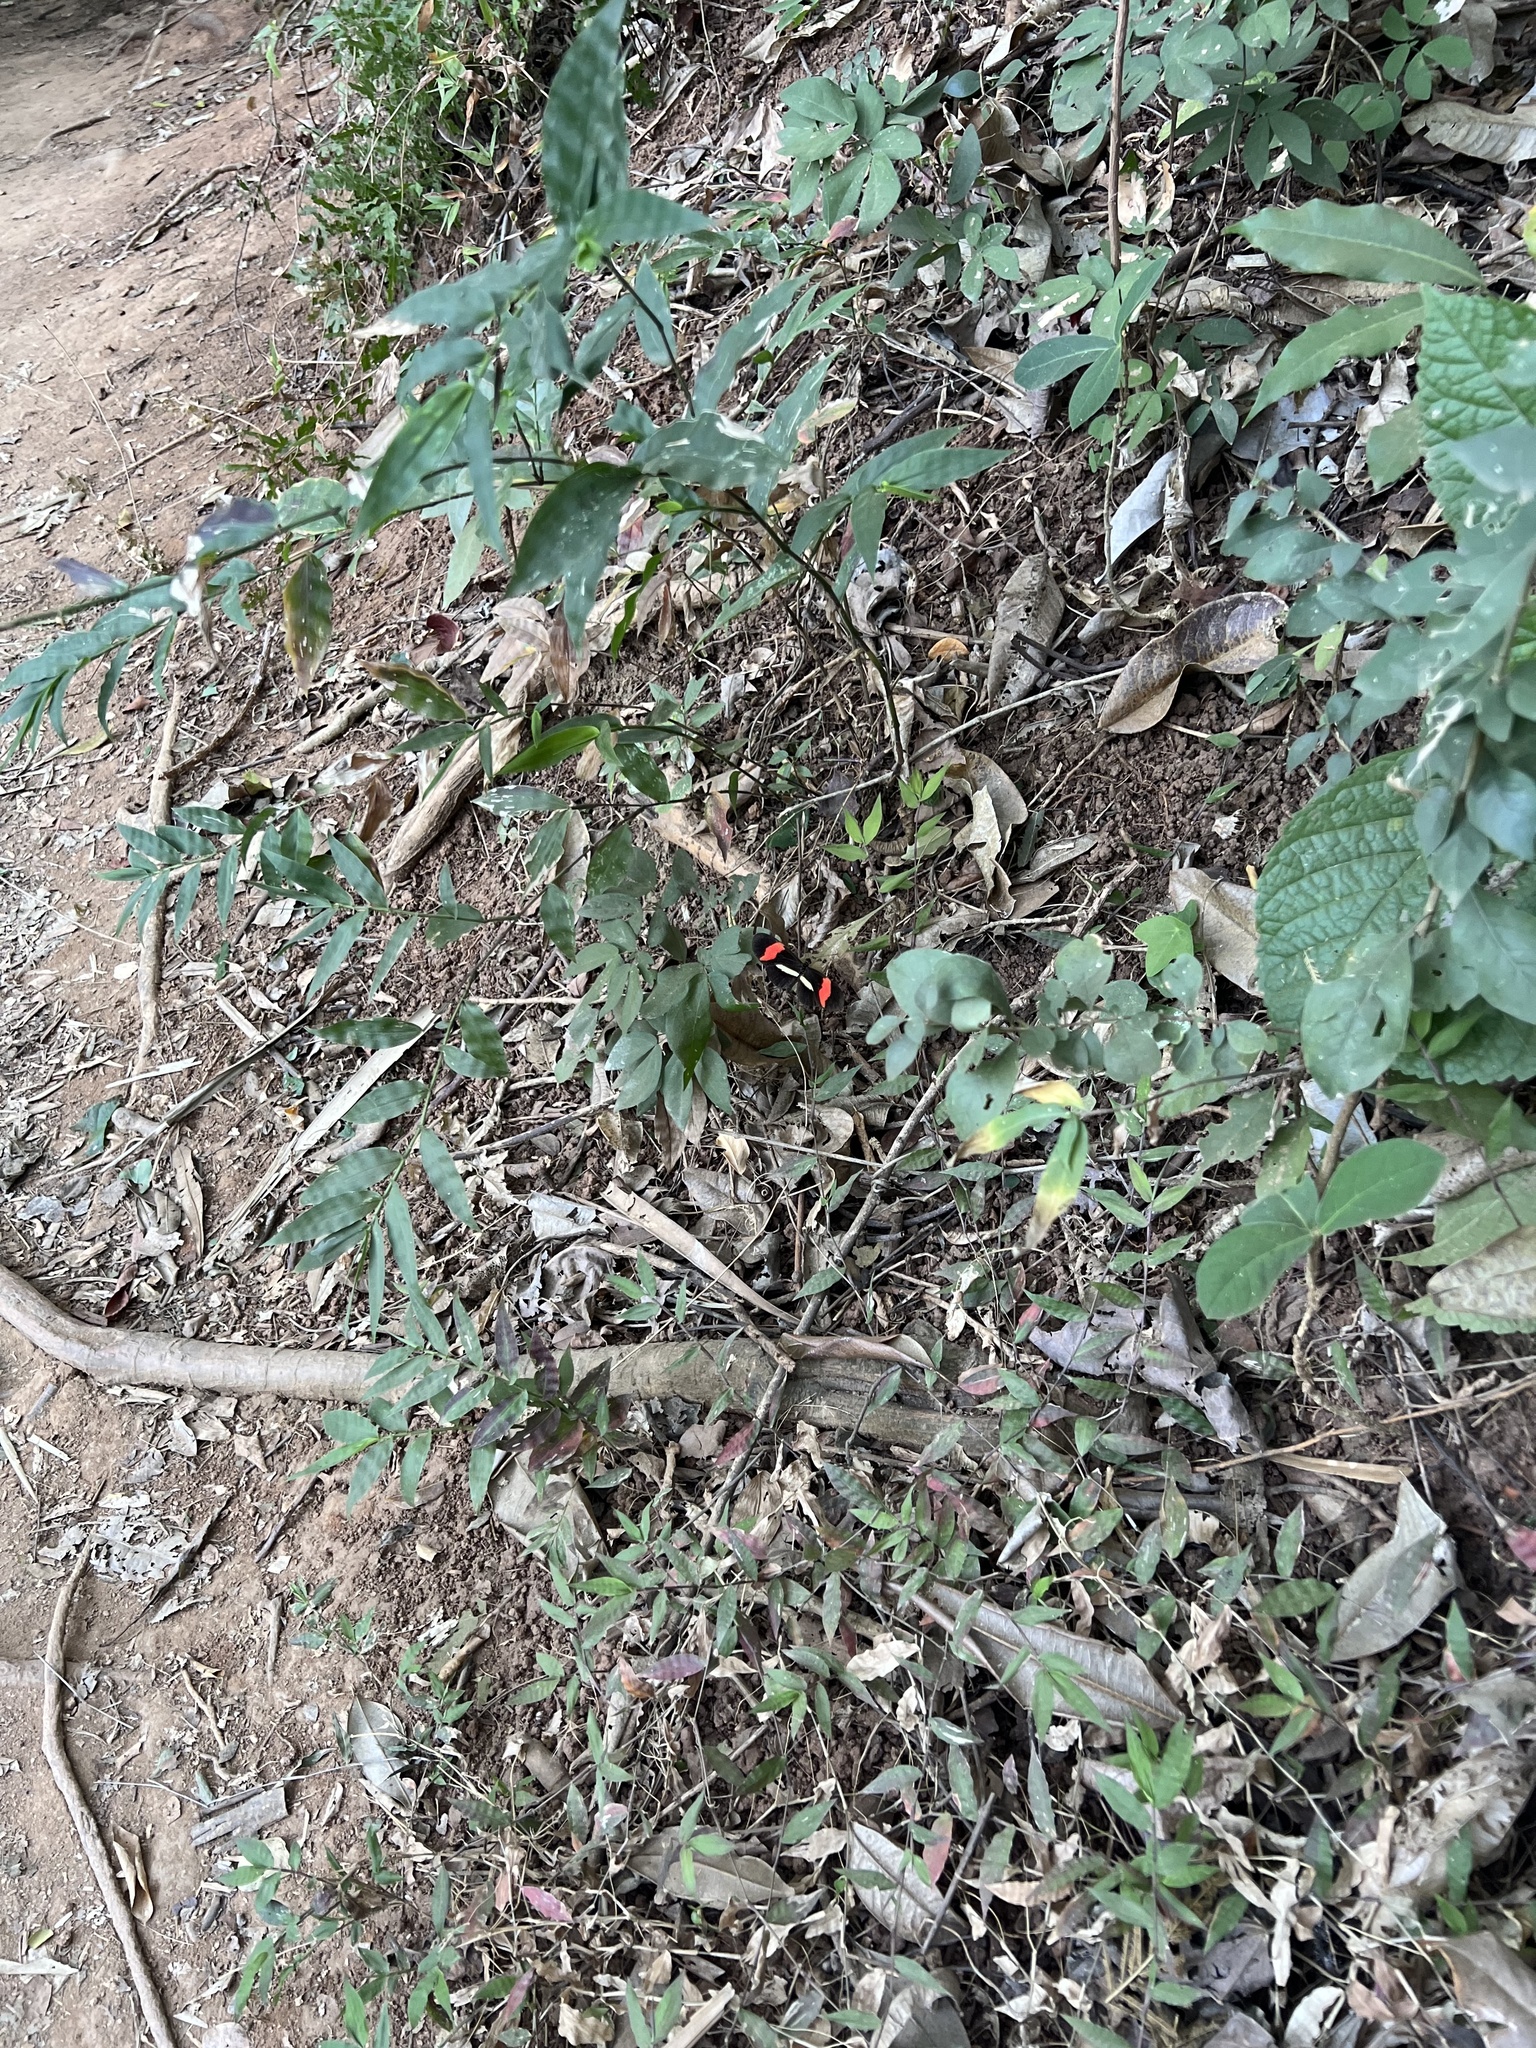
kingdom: Animalia
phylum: Arthropoda
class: Insecta
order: Lepidoptera
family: Nymphalidae
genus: Heliconius
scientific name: Heliconius erato
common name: Common patch longwing
